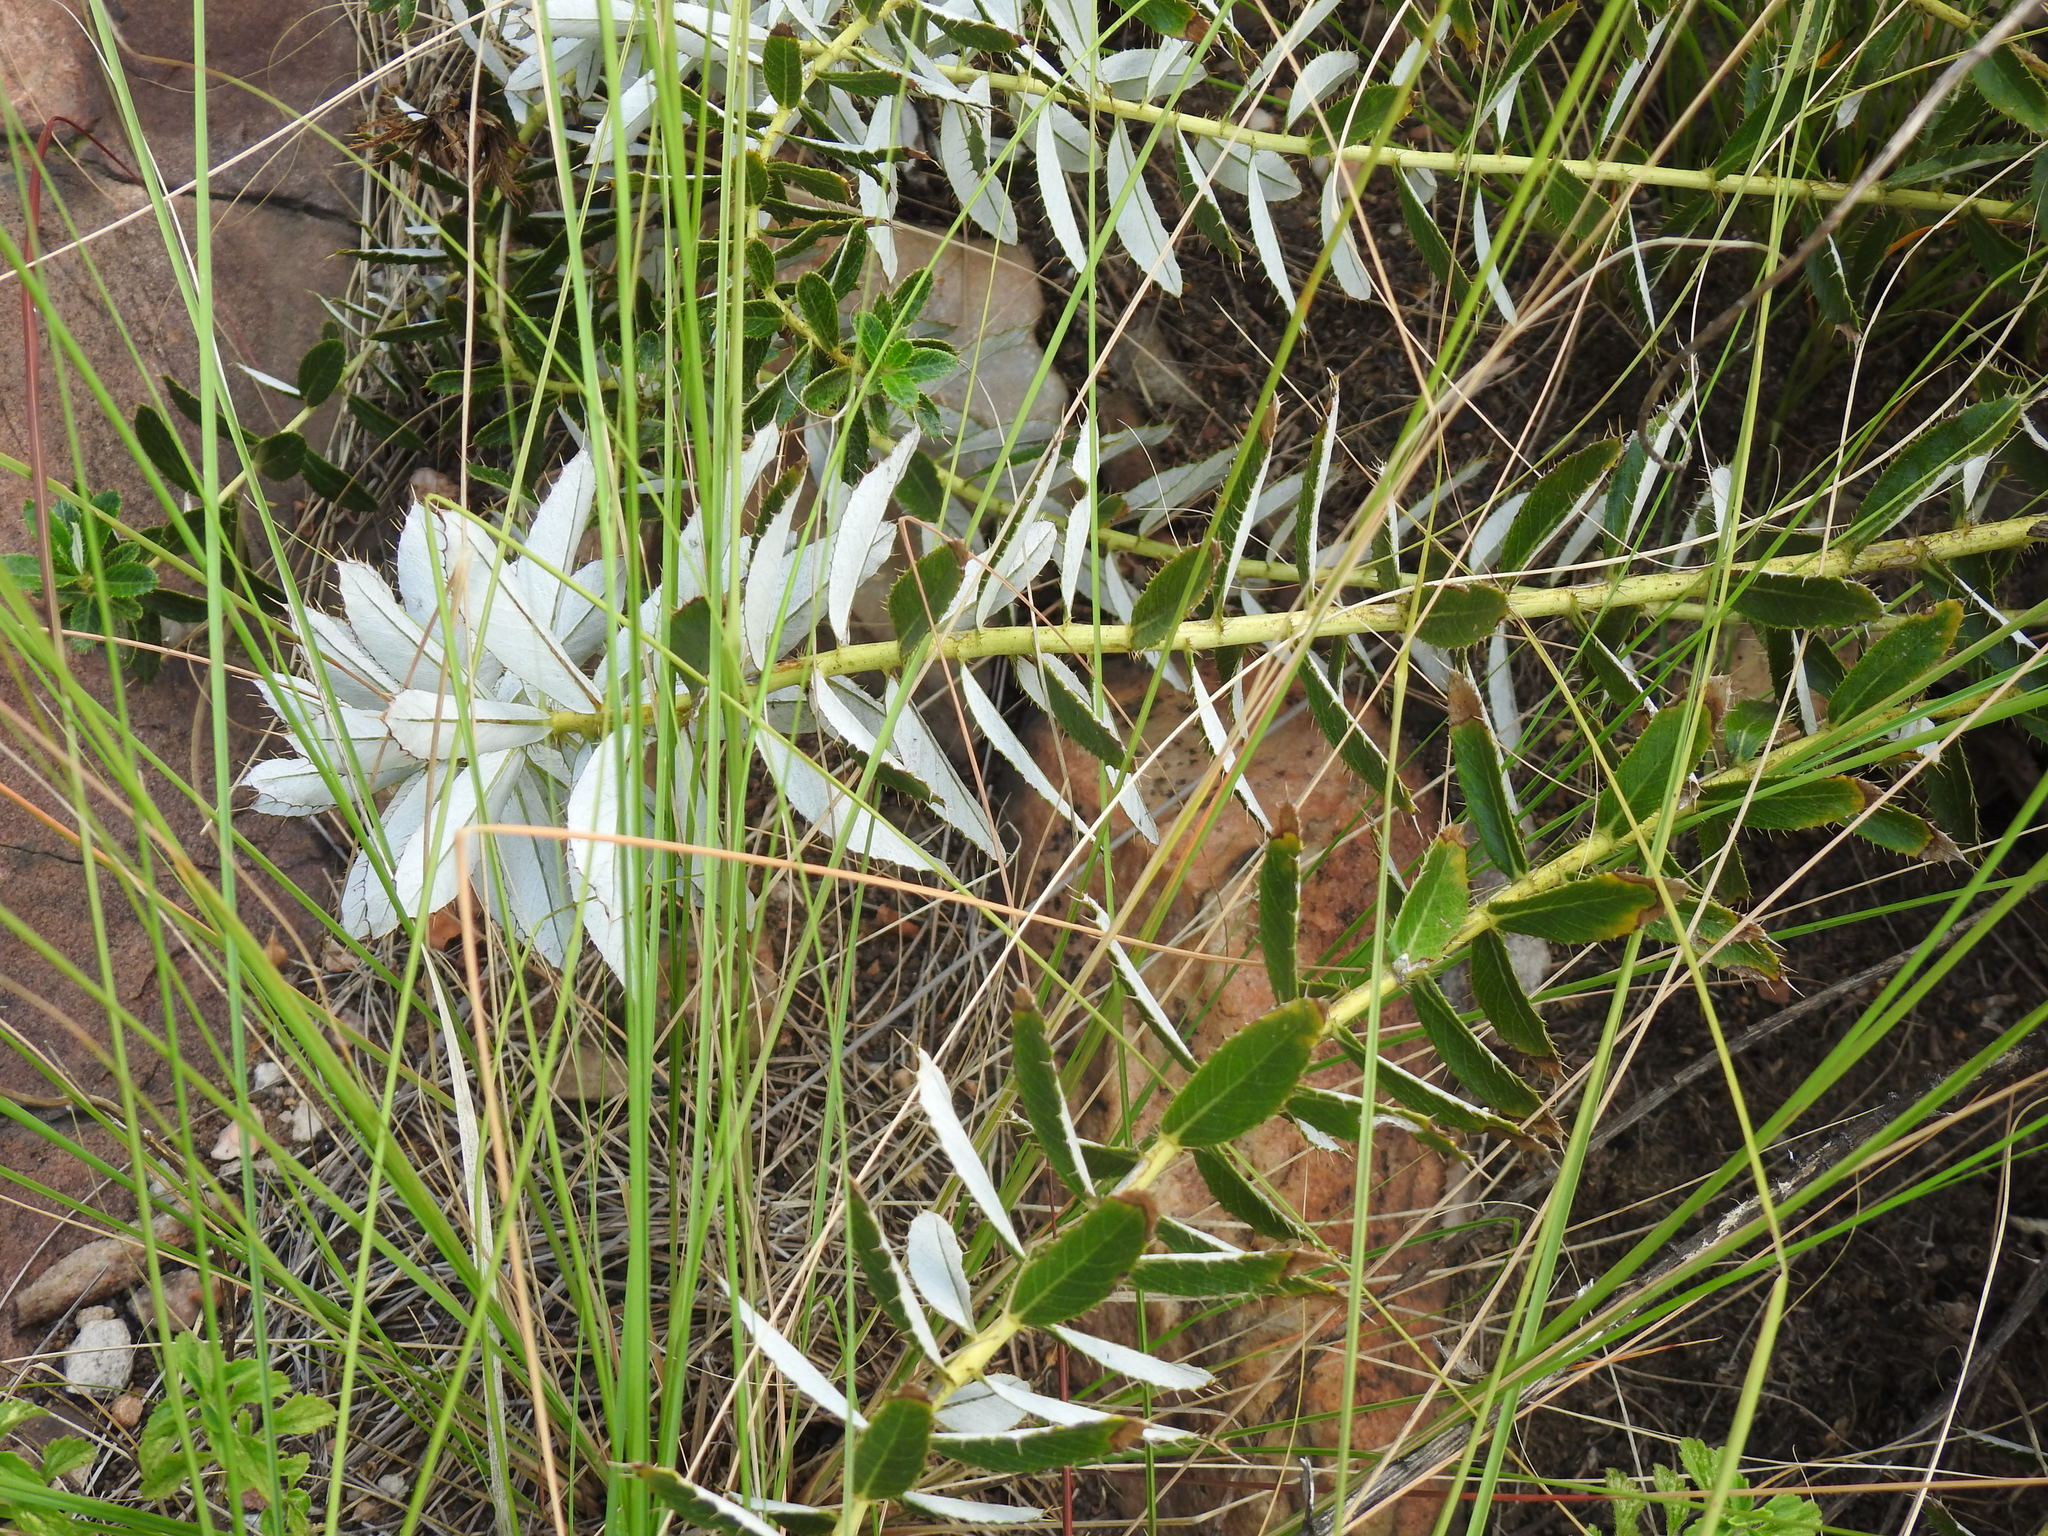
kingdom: Plantae
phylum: Tracheophyta
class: Magnoliopsida
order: Asterales
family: Asteraceae
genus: Berkheya
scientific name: Berkheya carlinopsis
